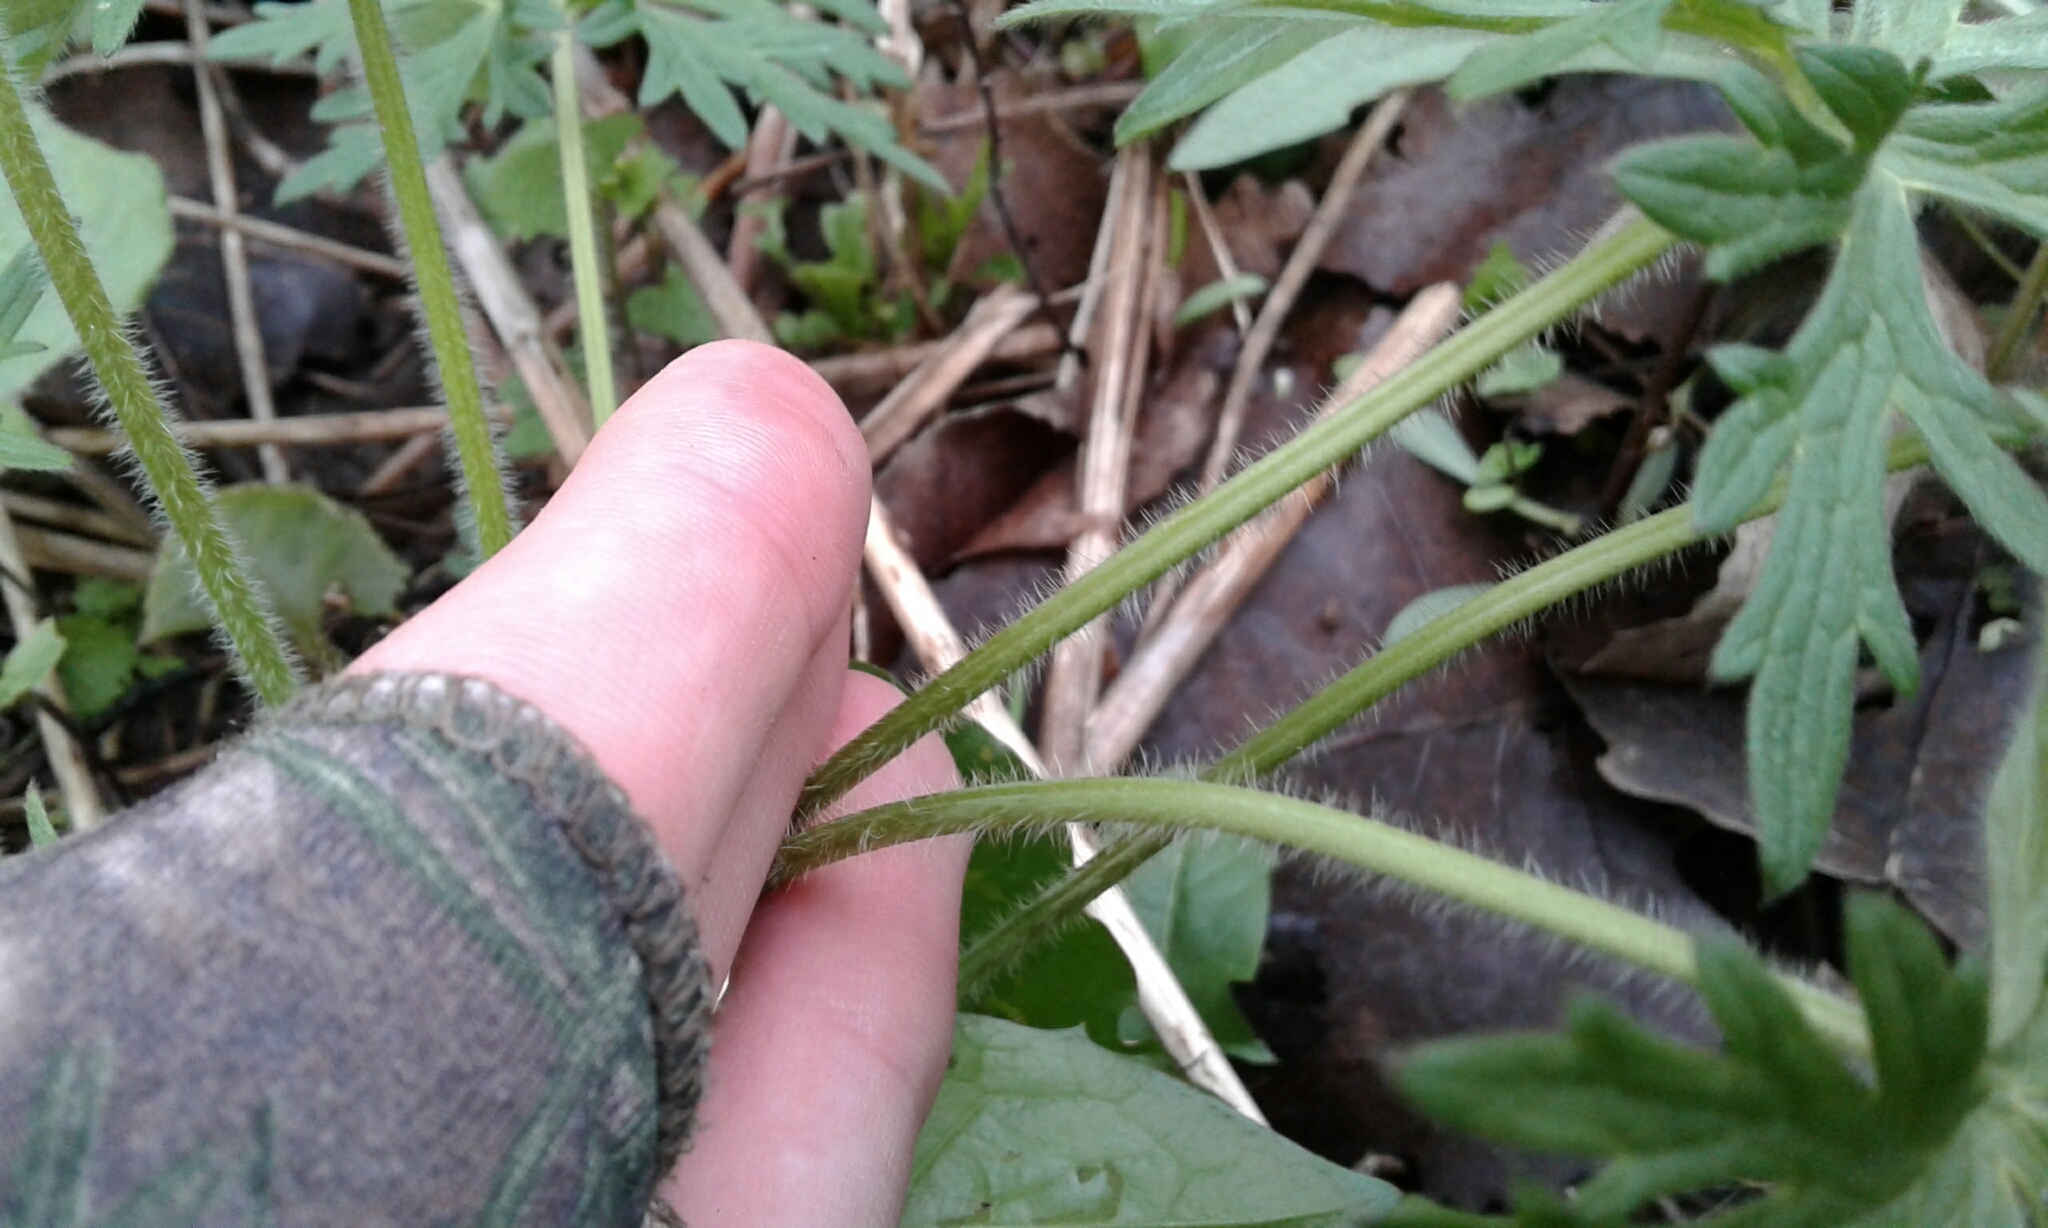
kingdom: Plantae
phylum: Tracheophyta
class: Magnoliopsida
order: Ranunculales
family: Ranunculaceae
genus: Ranunculus
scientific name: Ranunculus acris
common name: Meadow buttercup
